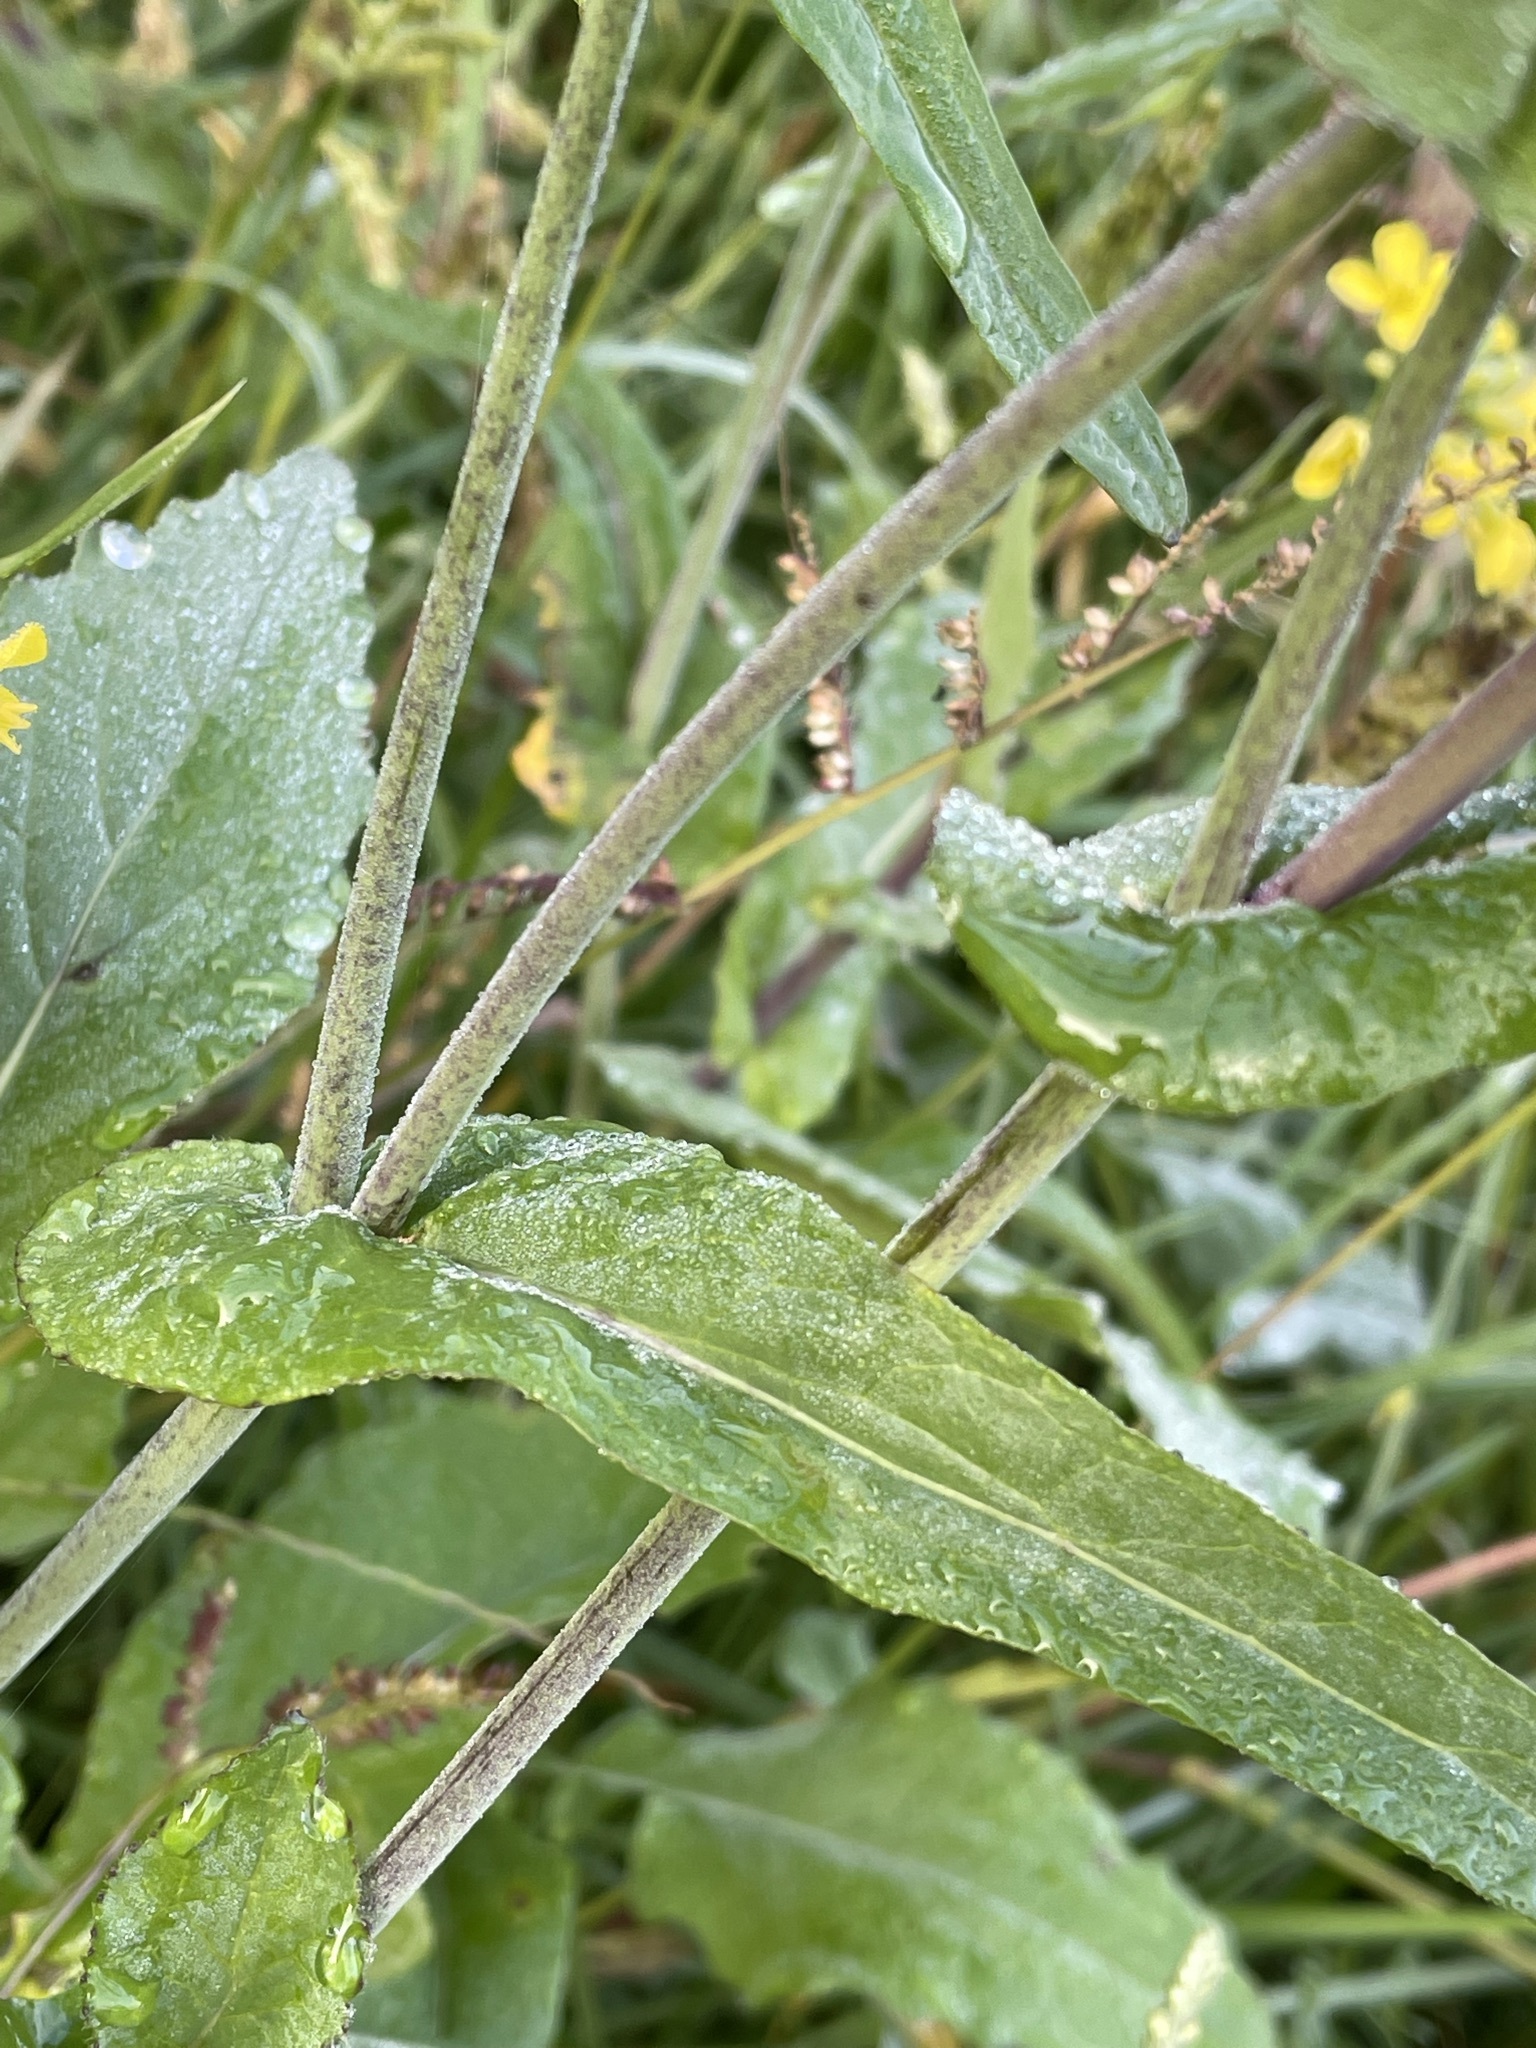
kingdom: Plantae
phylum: Tracheophyta
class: Magnoliopsida
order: Brassicales
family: Brassicaceae
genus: Brassica
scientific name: Brassica rapa
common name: Field mustard
